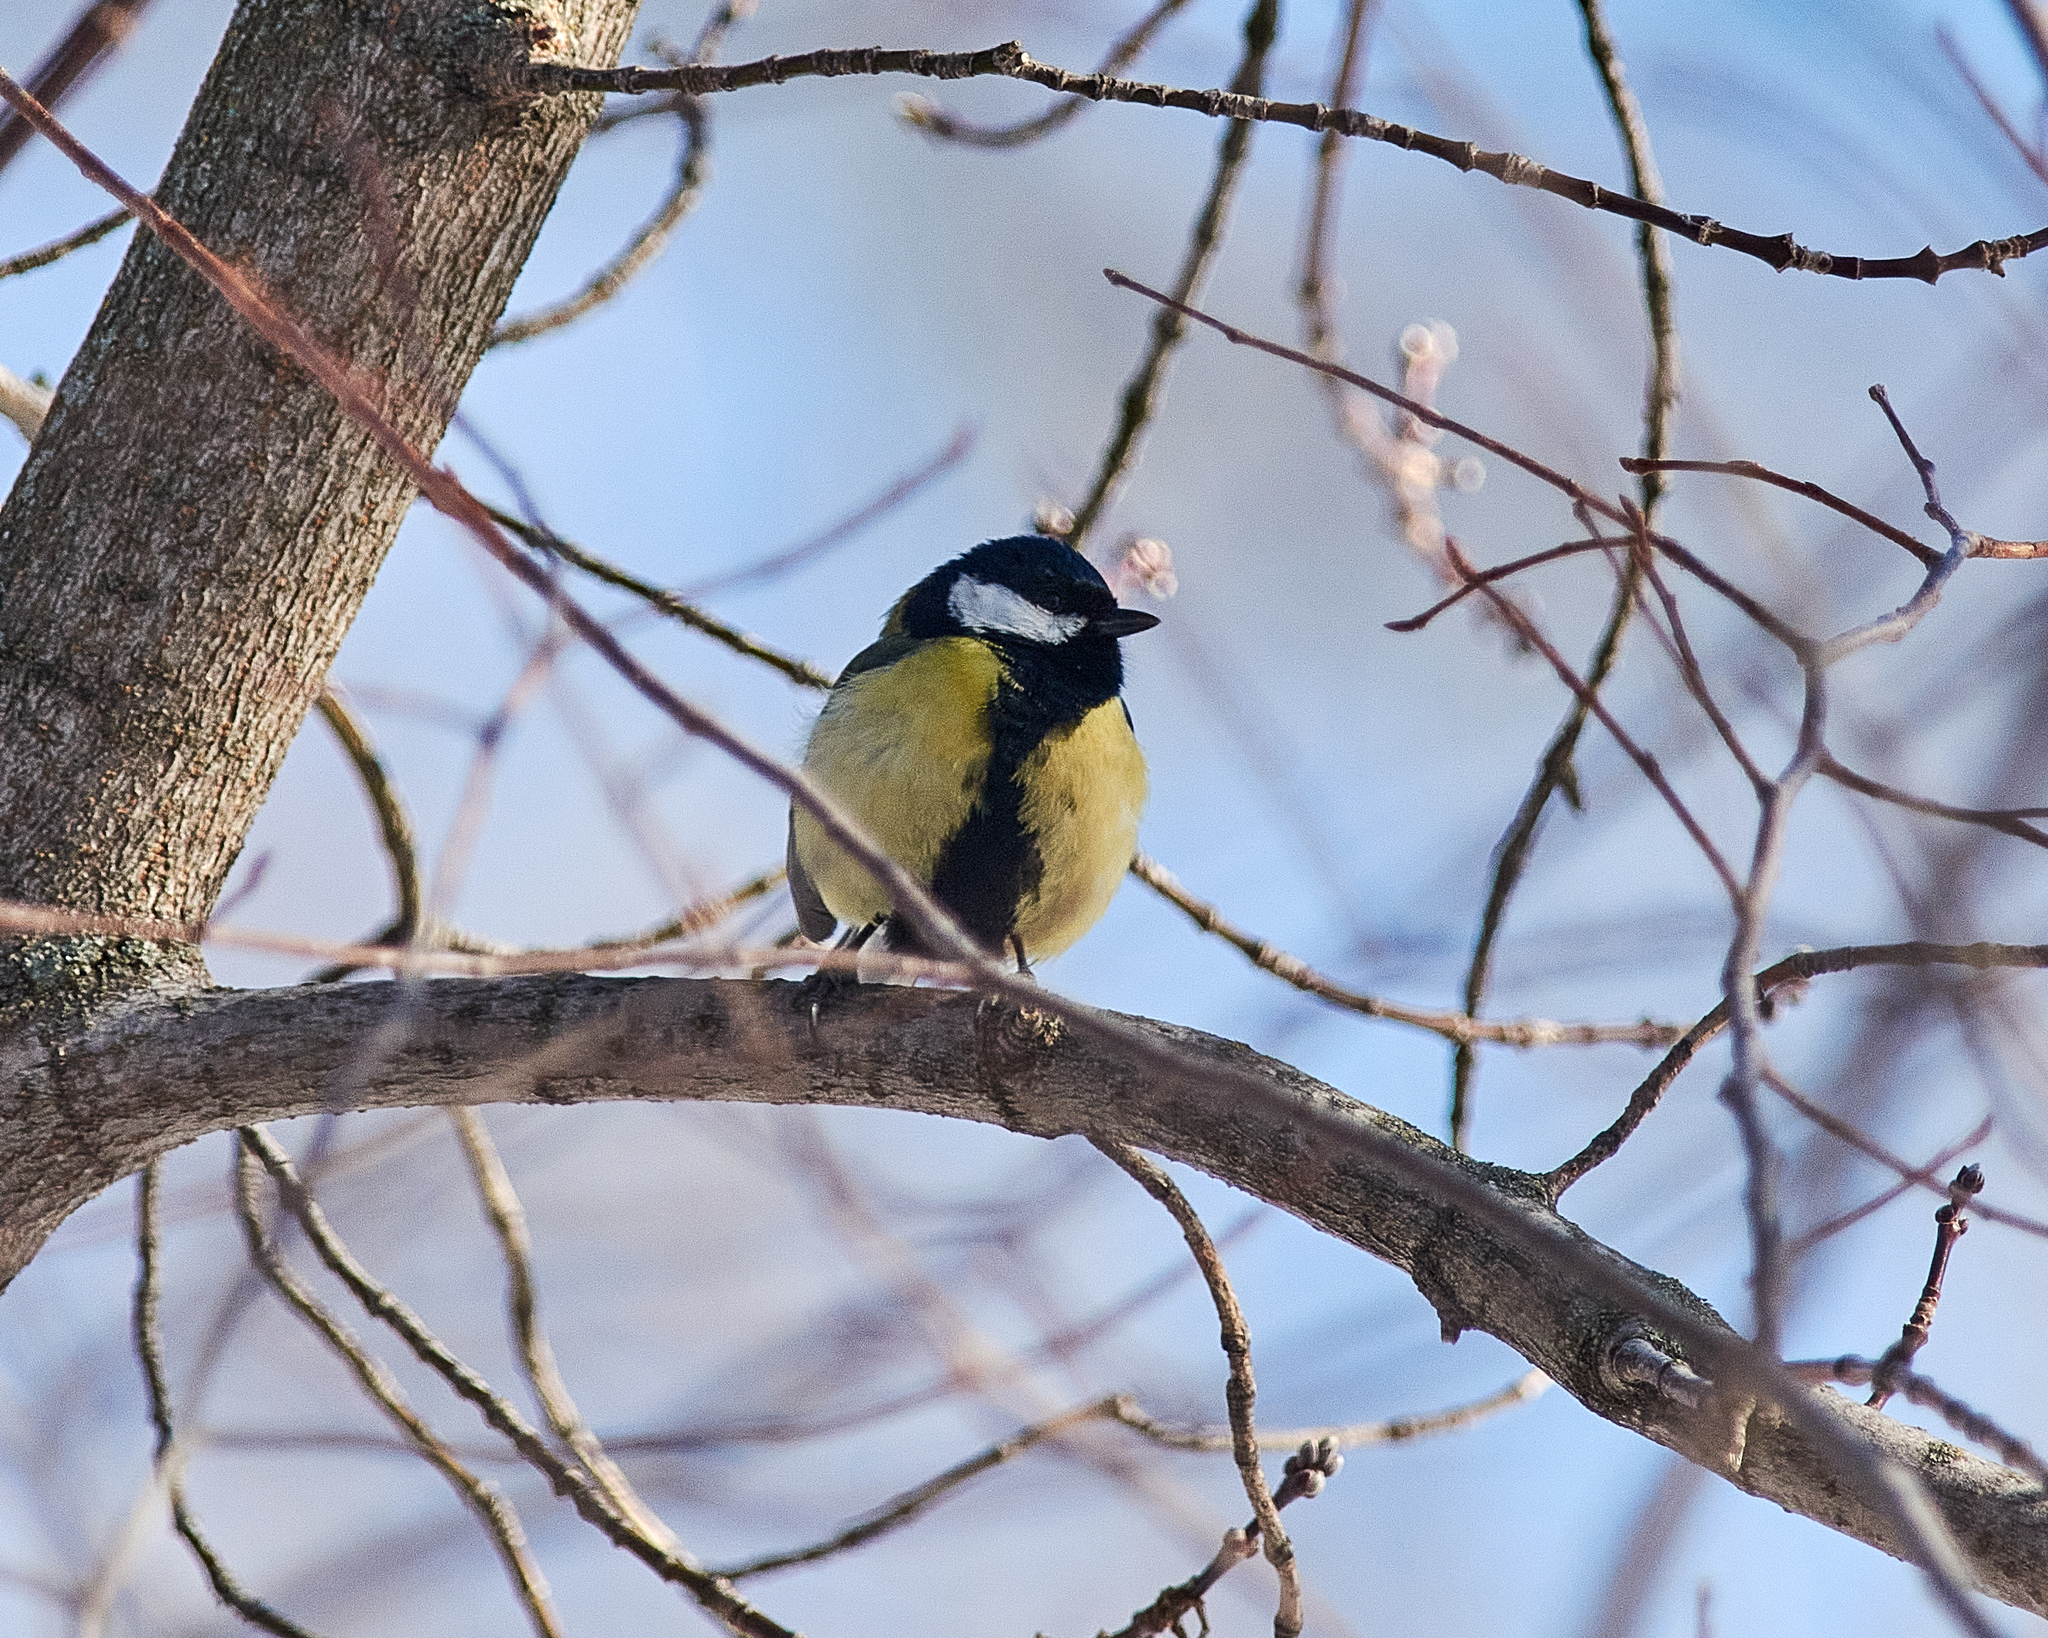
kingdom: Animalia
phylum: Chordata
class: Aves
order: Passeriformes
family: Paridae
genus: Parus
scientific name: Parus major
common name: Great tit
